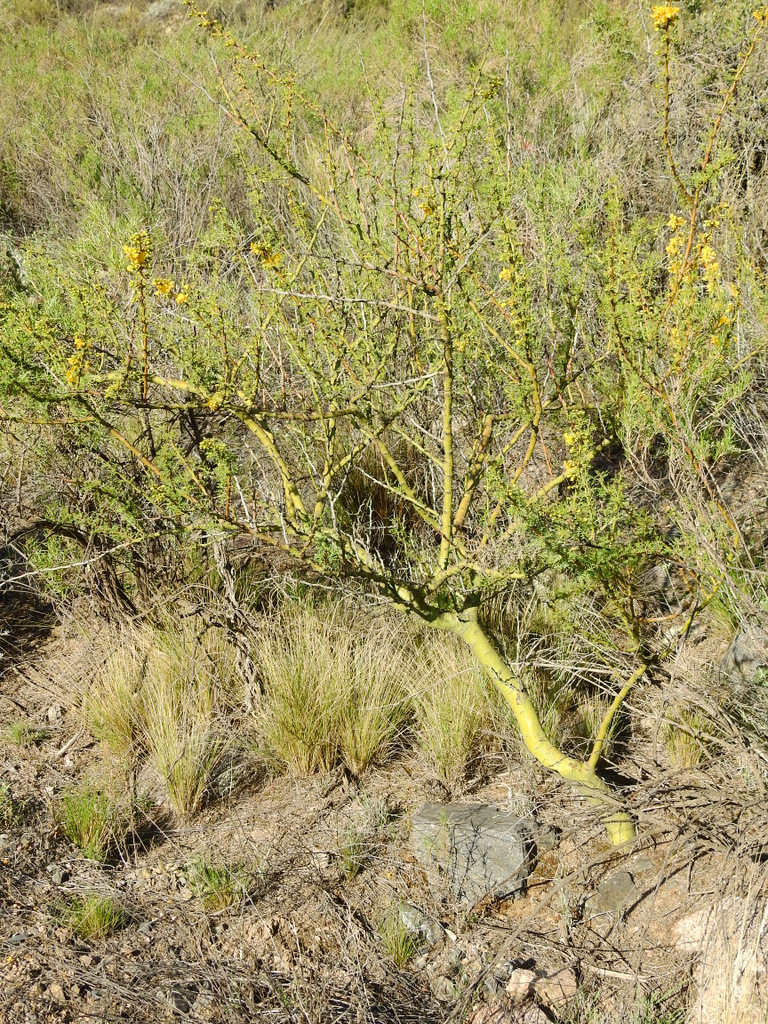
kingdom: Plantae
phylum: Tracheophyta
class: Magnoliopsida
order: Fabales
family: Fabaceae
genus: Parkinsonia
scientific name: Parkinsonia praecox
